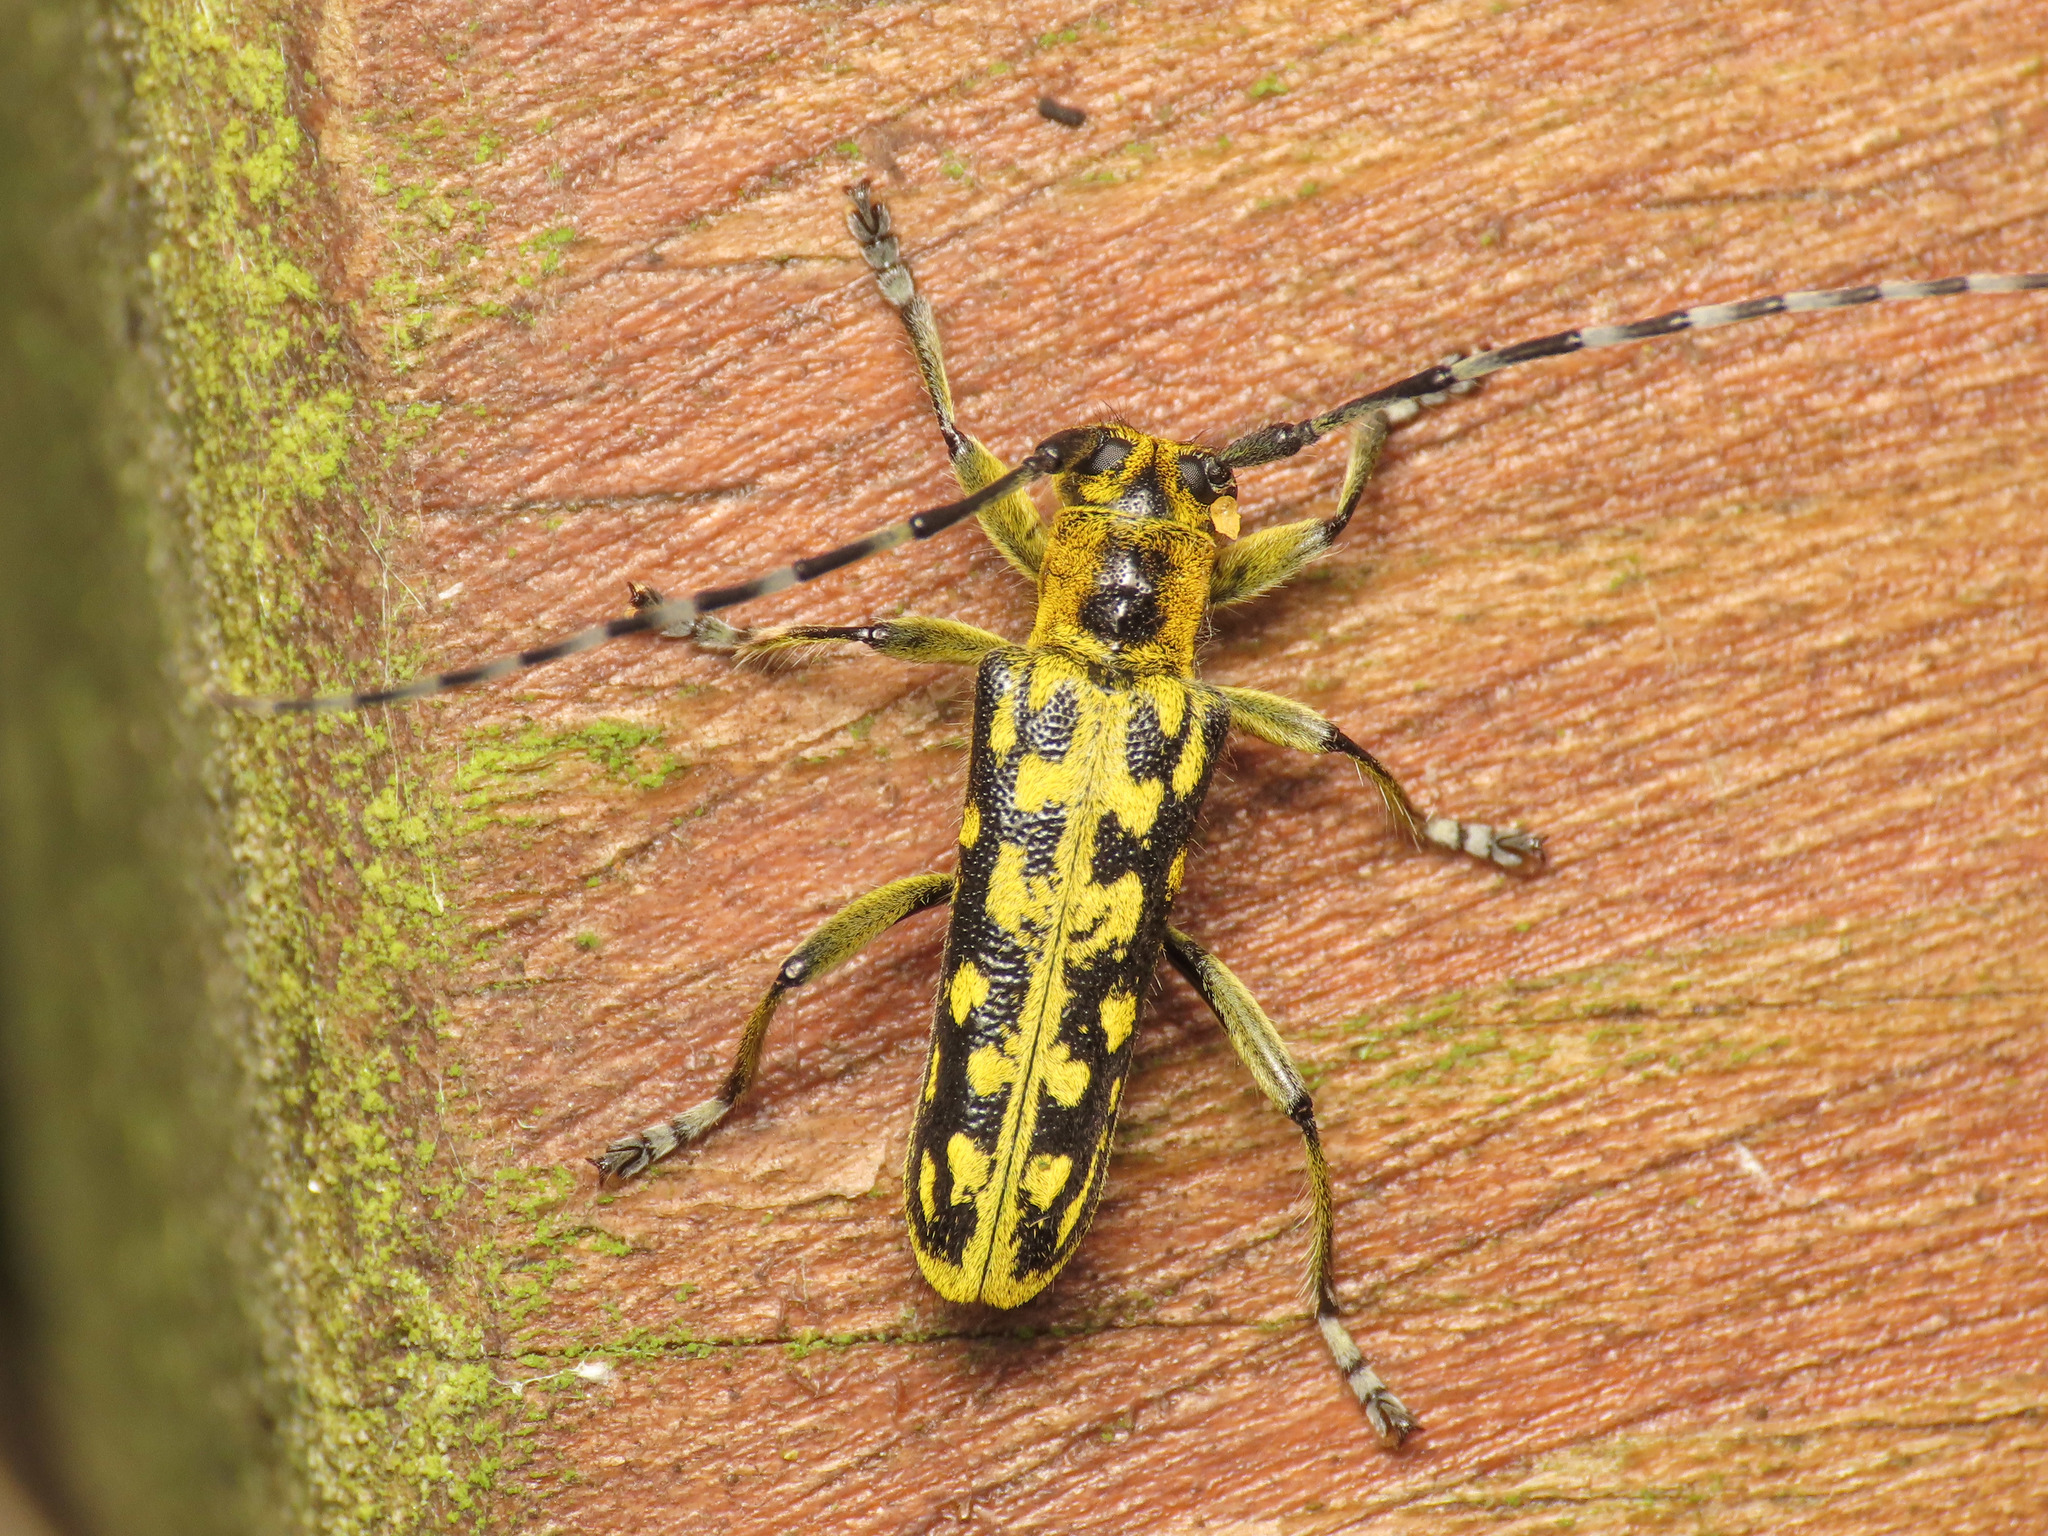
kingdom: Animalia
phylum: Arthropoda
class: Insecta
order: Coleoptera
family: Cerambycidae
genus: Saperda
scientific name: Saperda scalaris
